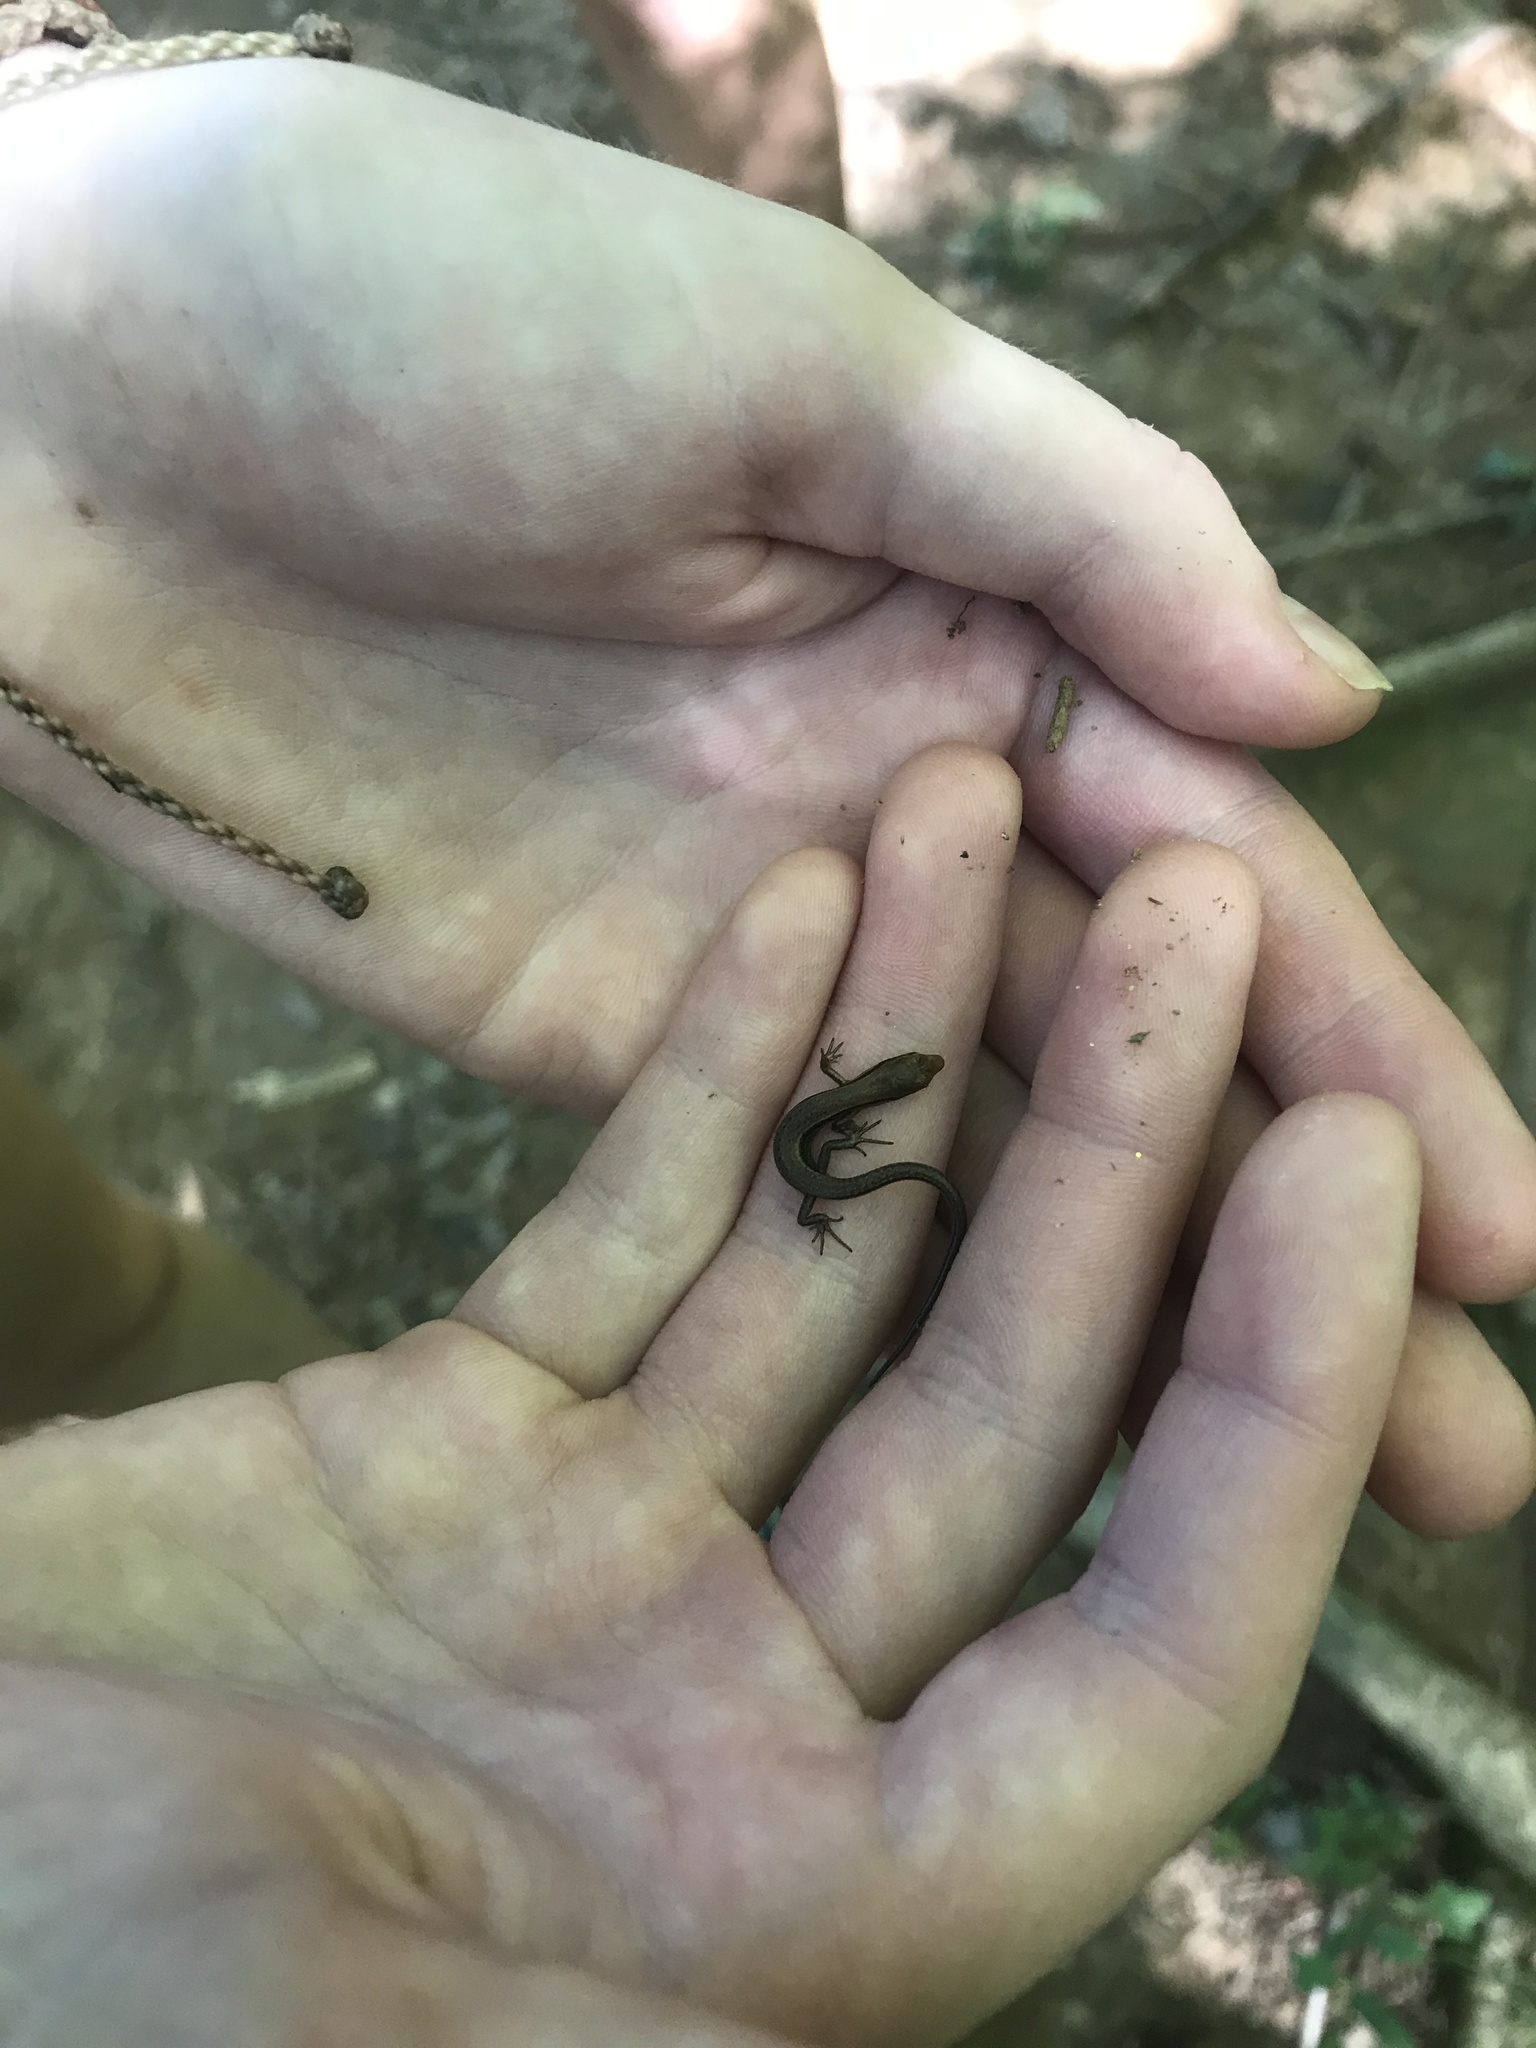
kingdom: Animalia
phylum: Chordata
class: Squamata
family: Scincidae
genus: Scincella
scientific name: Scincella lateralis
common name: Ground skink
